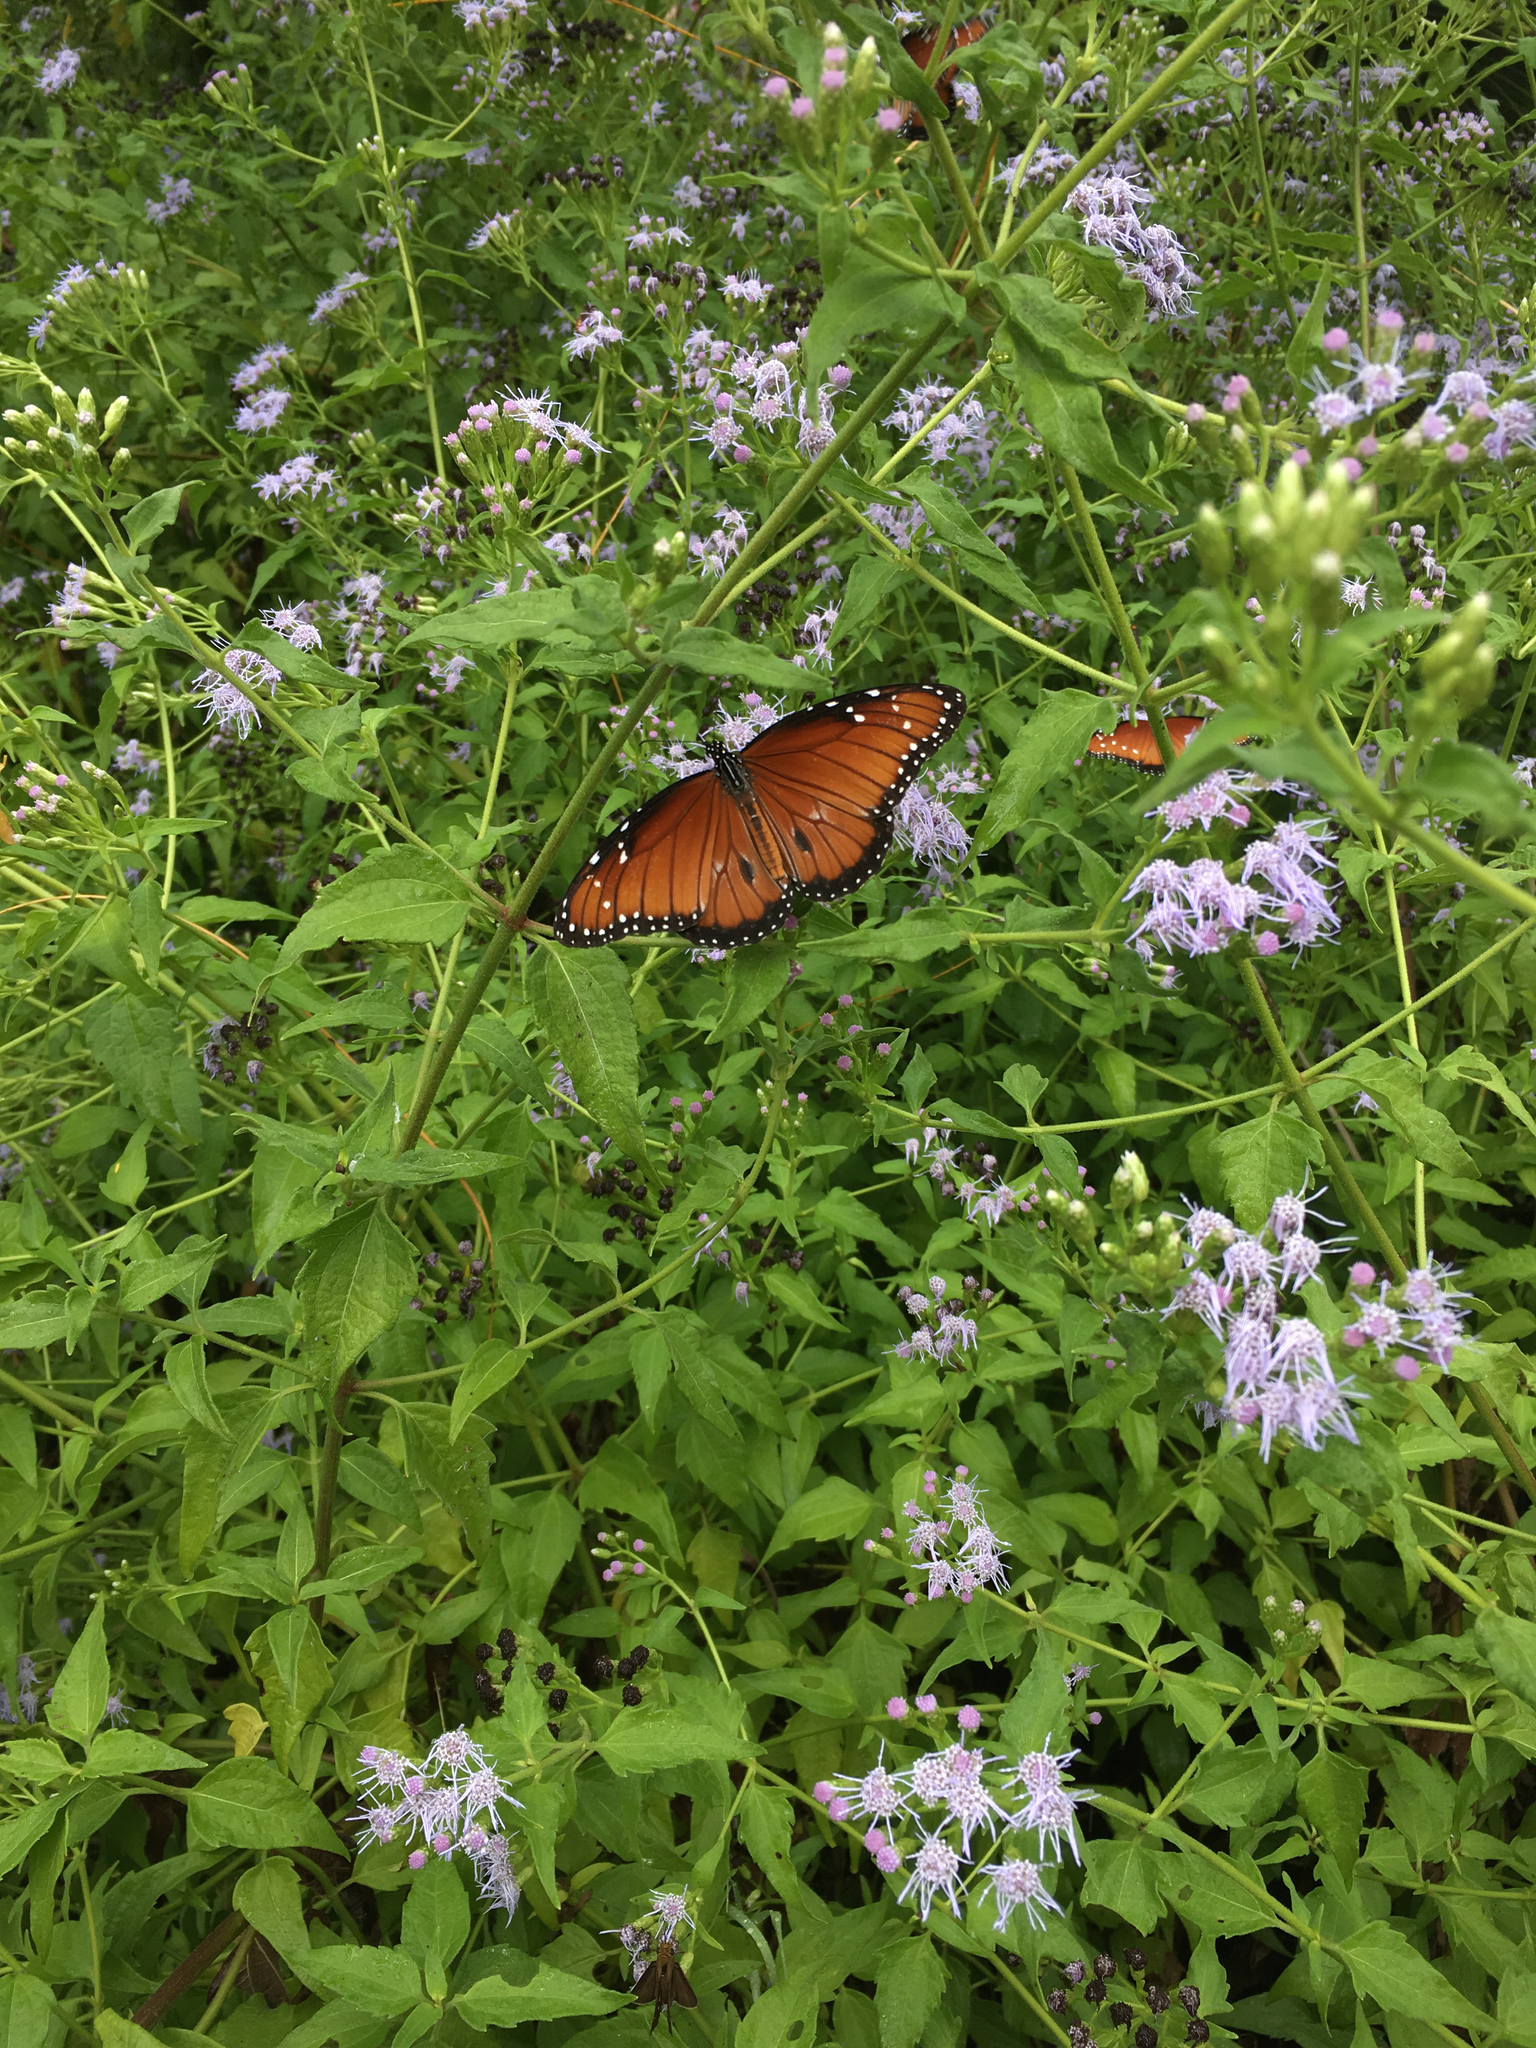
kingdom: Animalia
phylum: Arthropoda
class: Insecta
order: Lepidoptera
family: Nymphalidae
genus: Danaus
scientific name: Danaus eresimus
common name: Soldier
